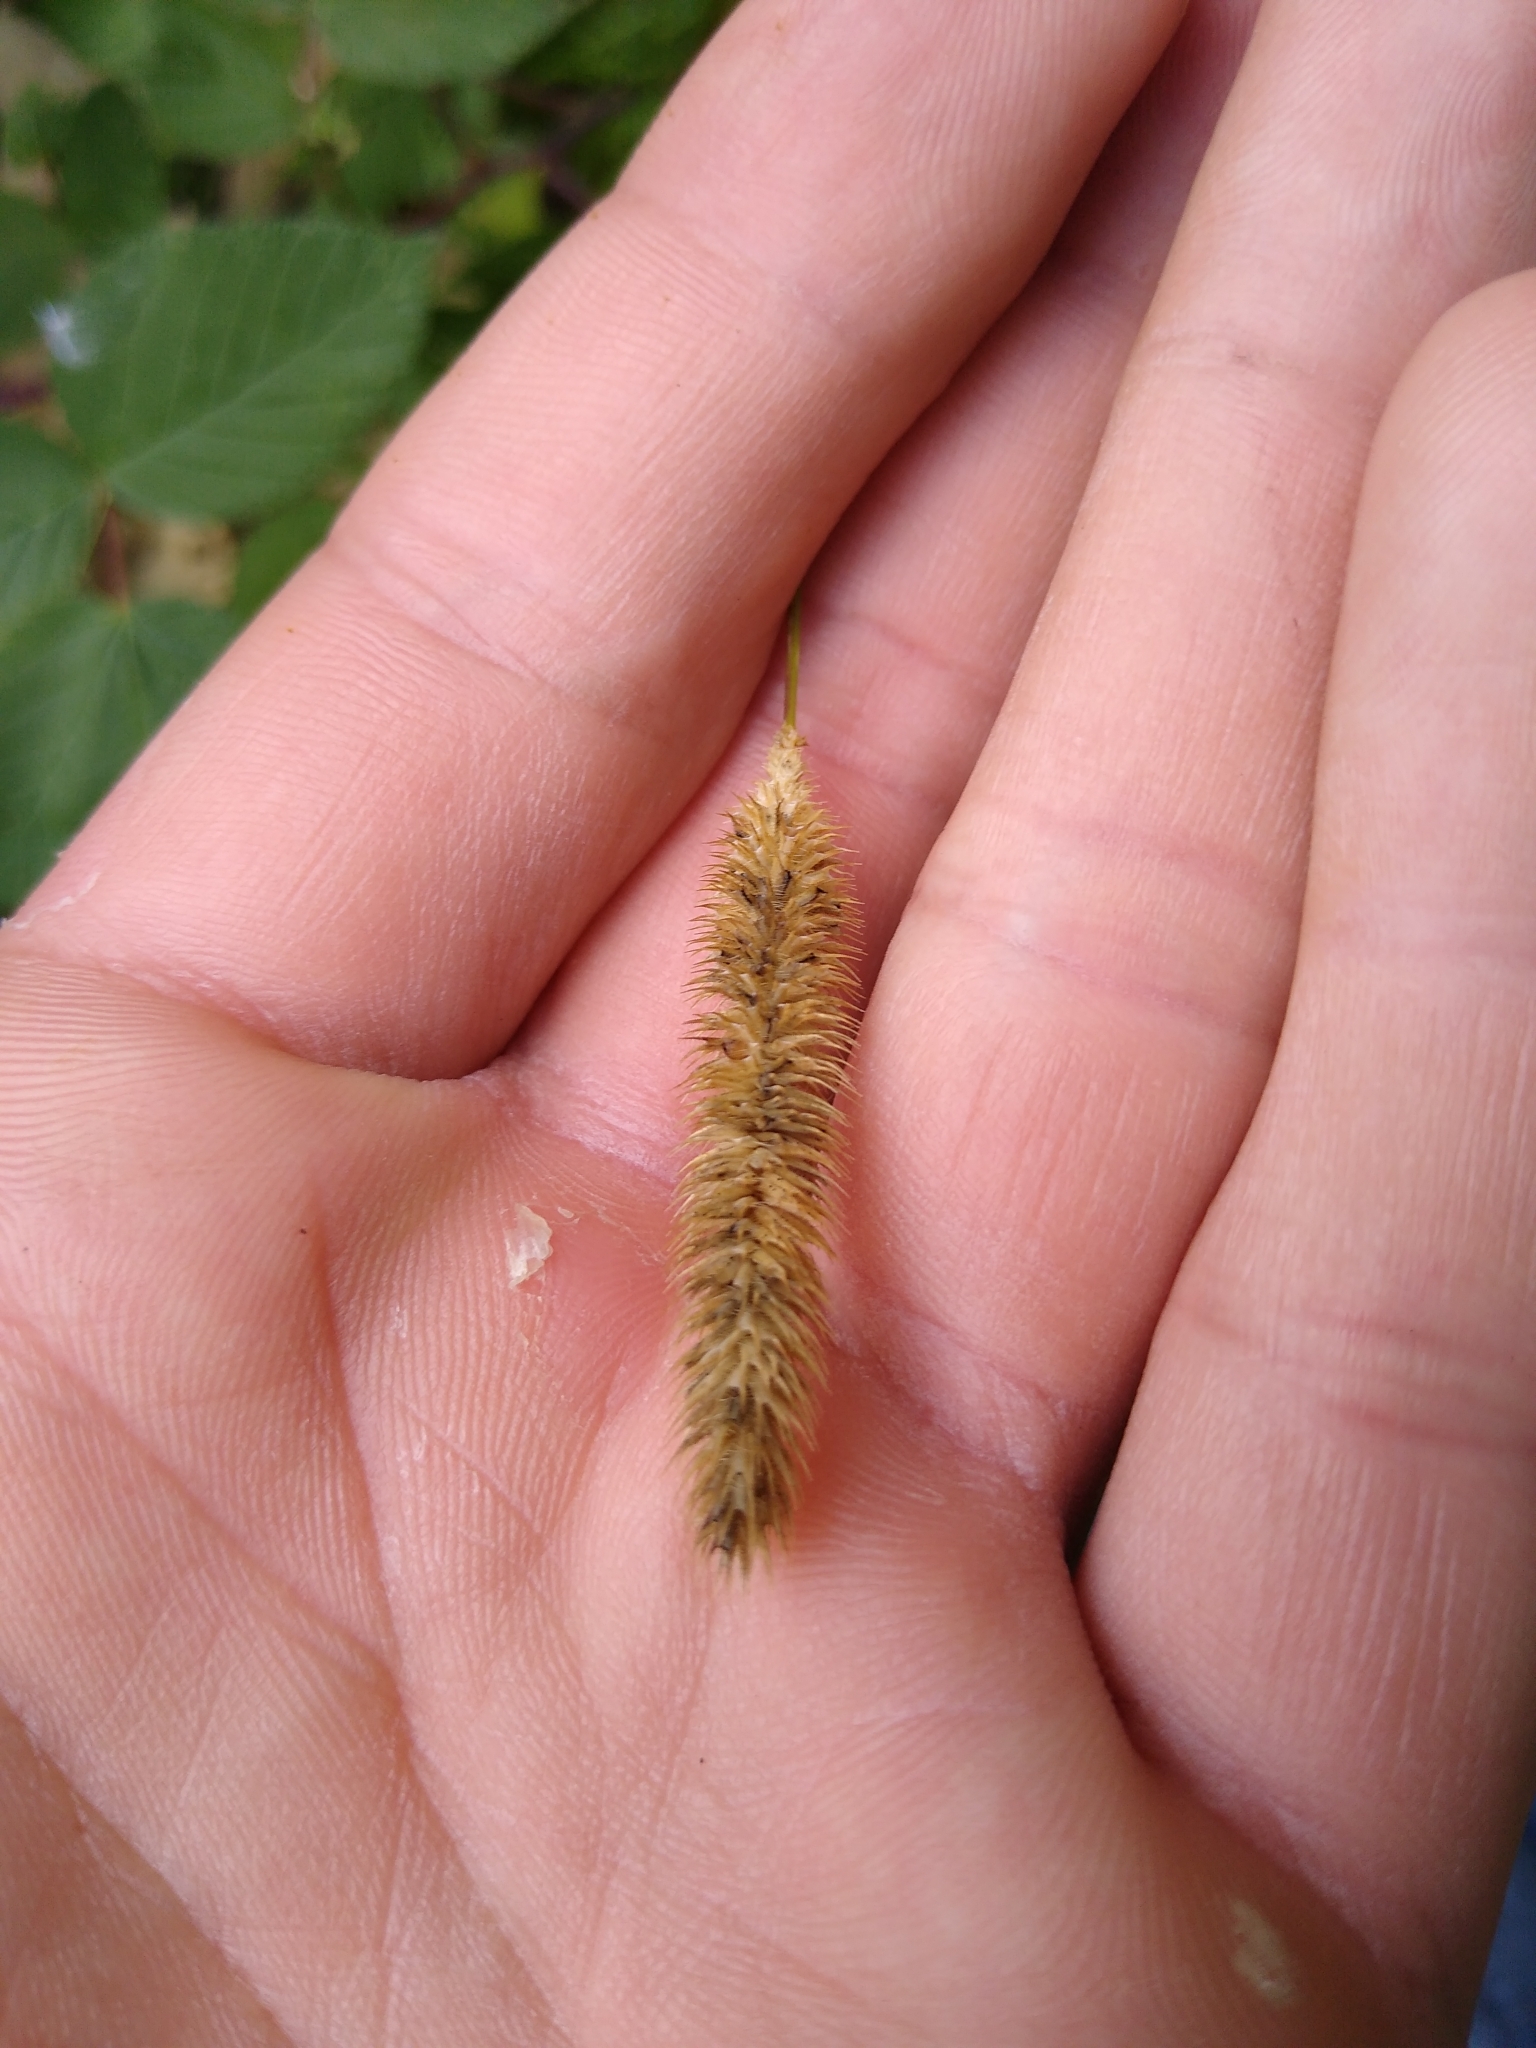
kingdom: Plantae
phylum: Tracheophyta
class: Liliopsida
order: Poales
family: Poaceae
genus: Phleum
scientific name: Phleum pratense
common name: Timothy grass
